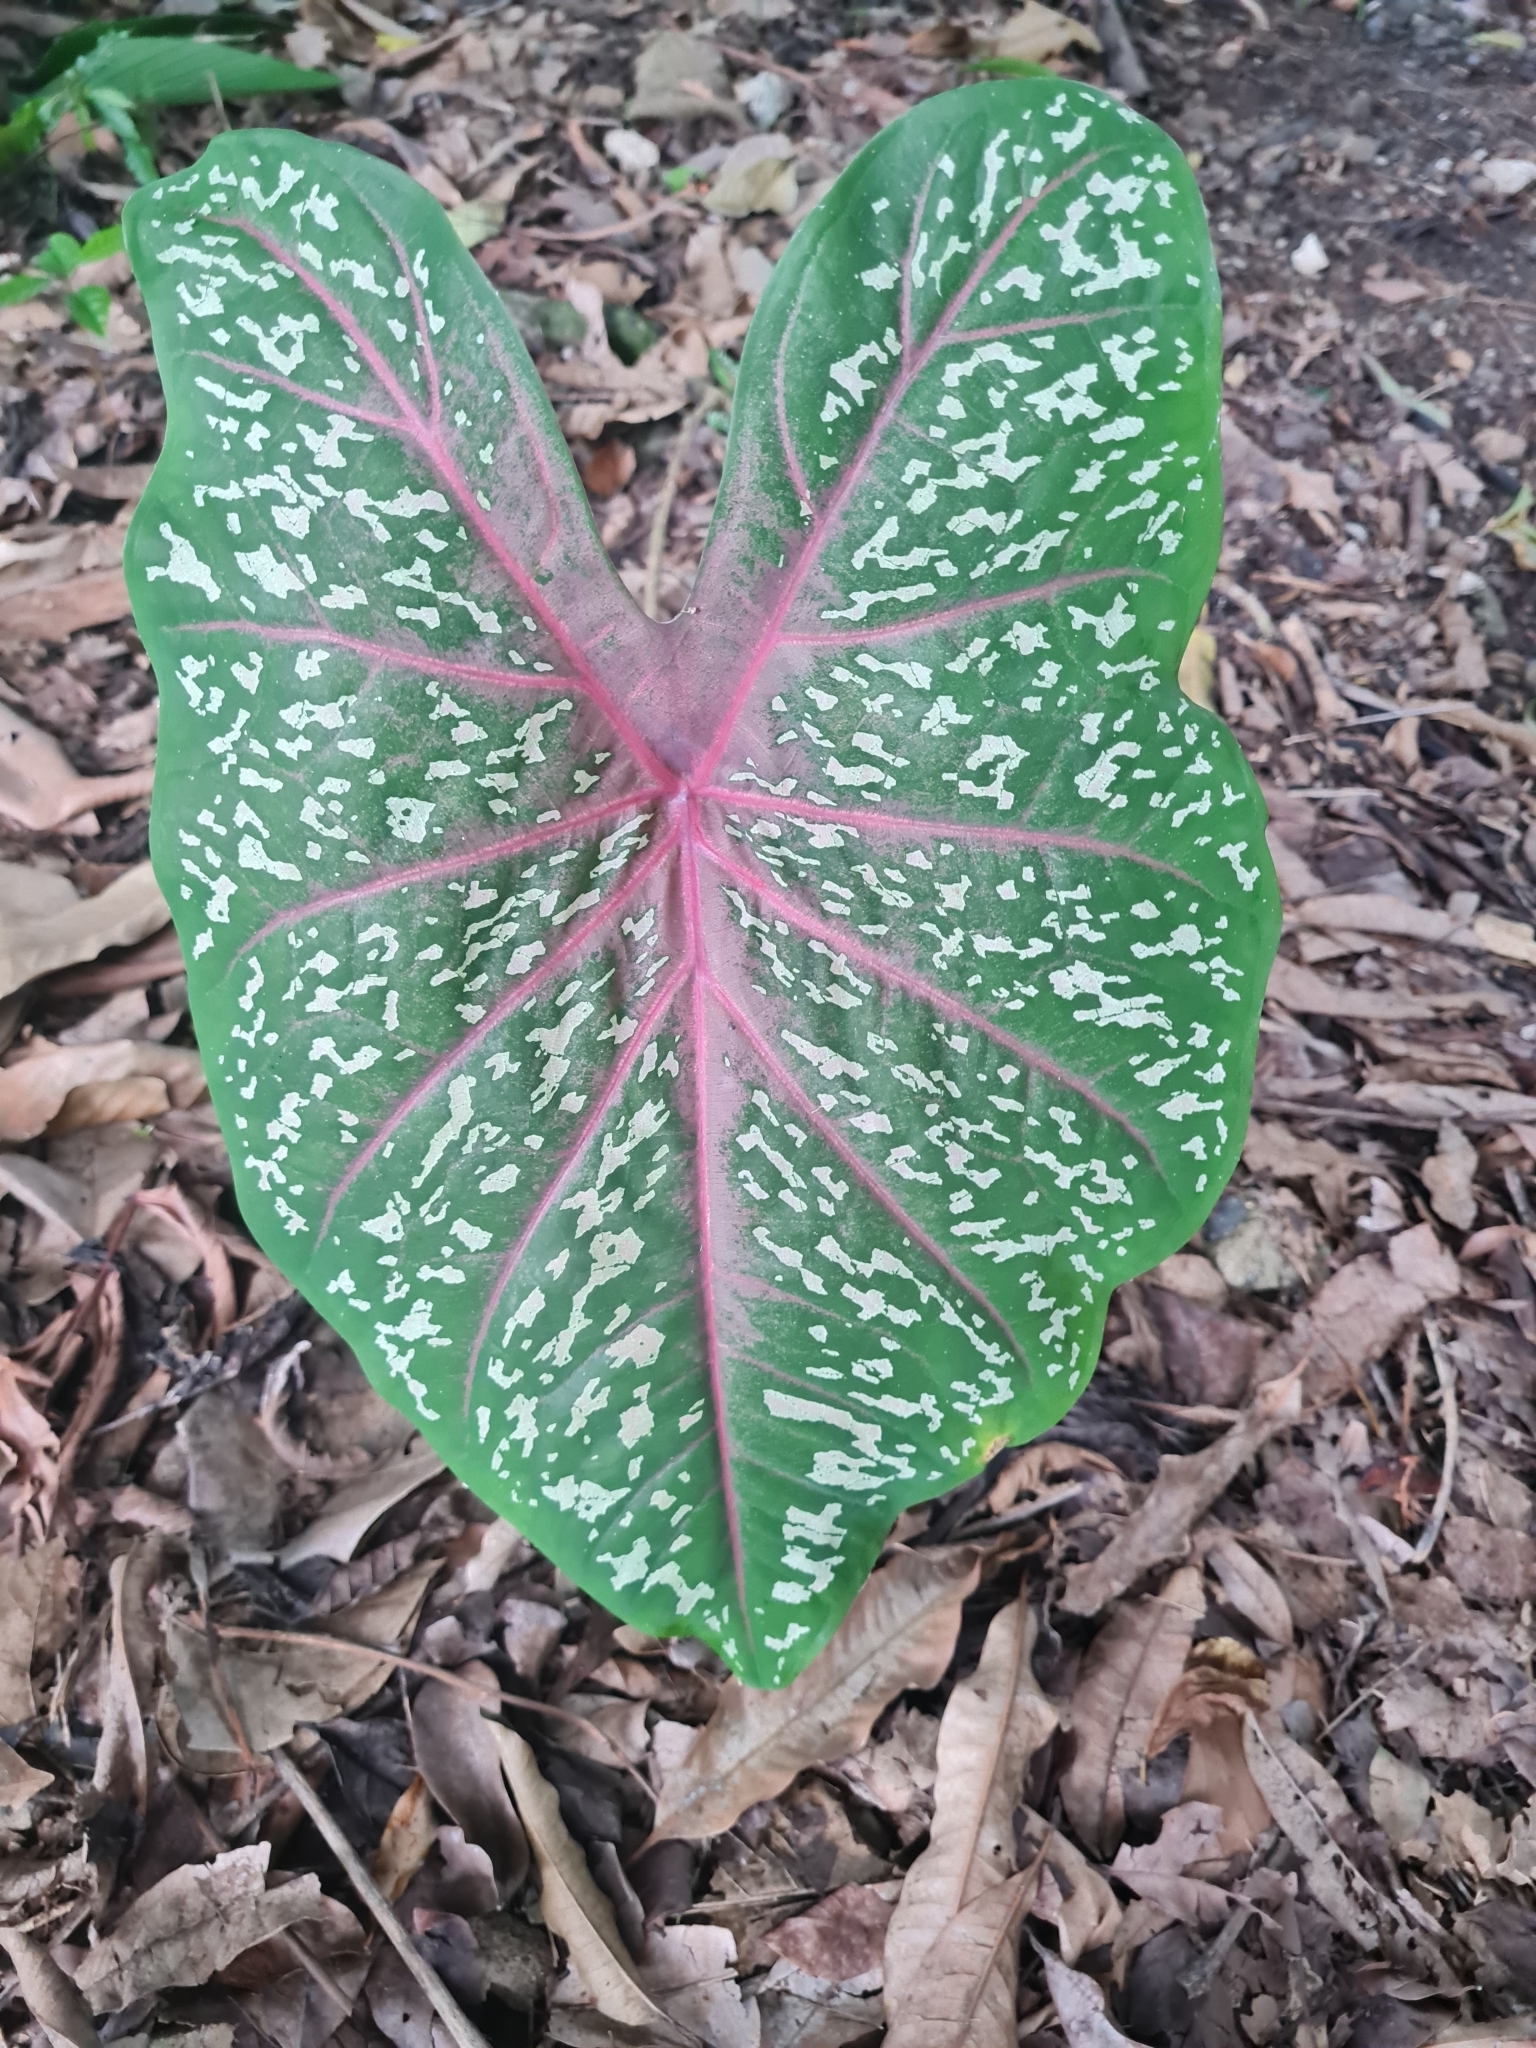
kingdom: Plantae
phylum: Tracheophyta
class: Liliopsida
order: Alismatales
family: Araceae
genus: Caladium
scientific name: Caladium bicolor
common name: Artist's pallet
